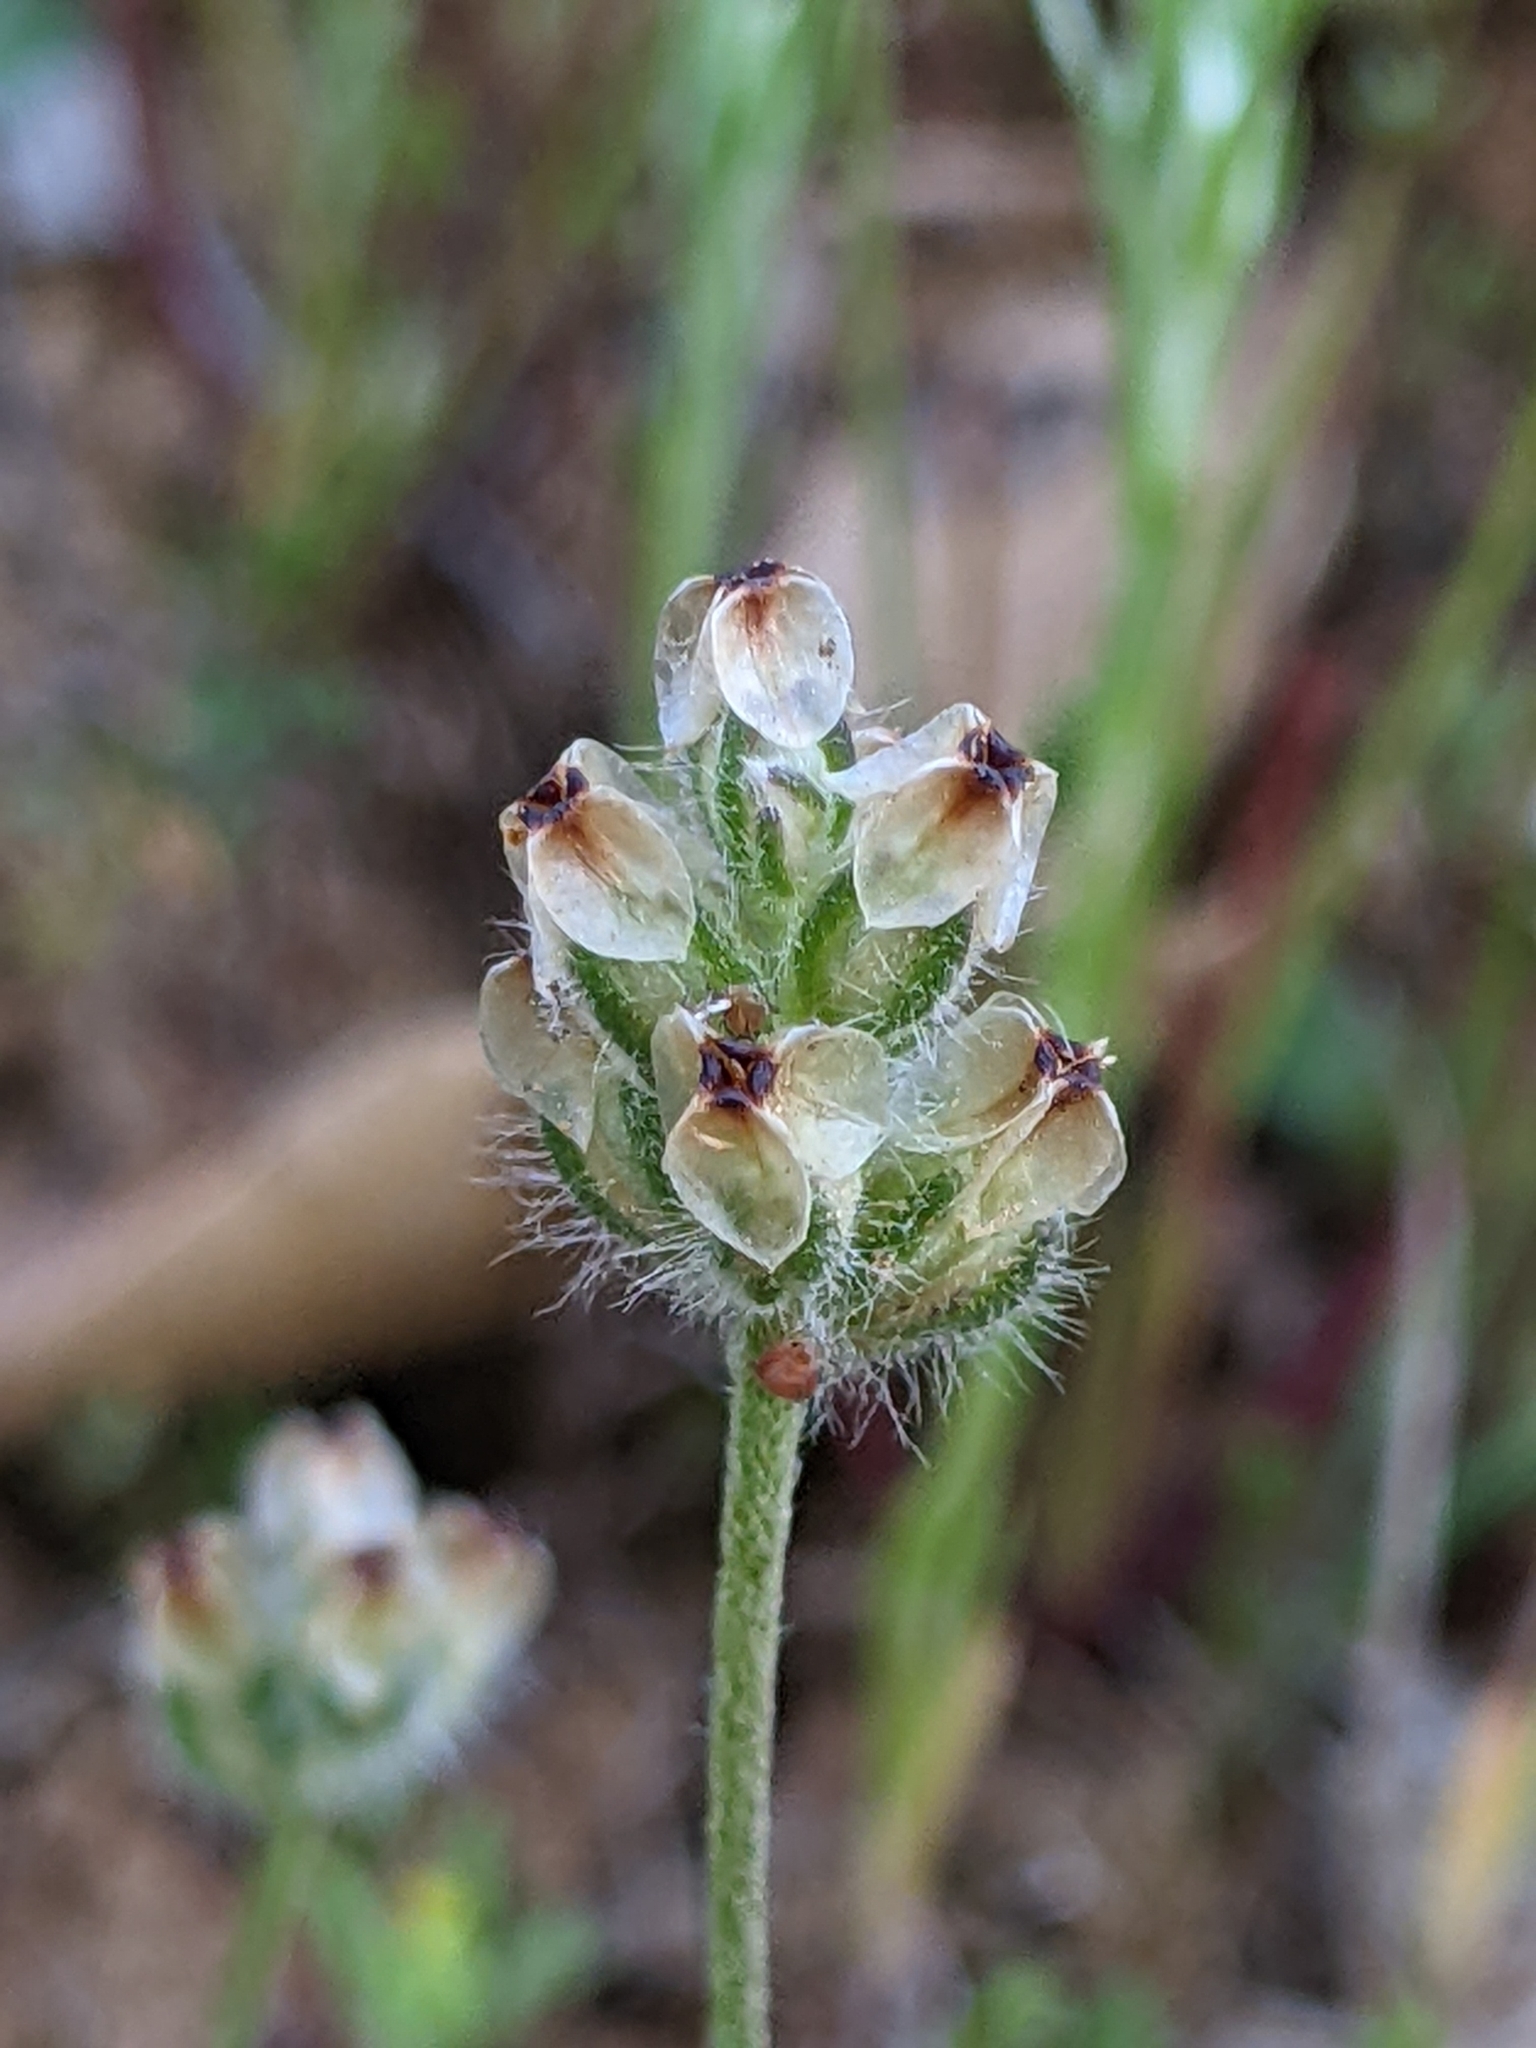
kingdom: Plantae
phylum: Tracheophyta
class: Magnoliopsida
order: Lamiales
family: Plantaginaceae
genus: Plantago
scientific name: Plantago erecta
